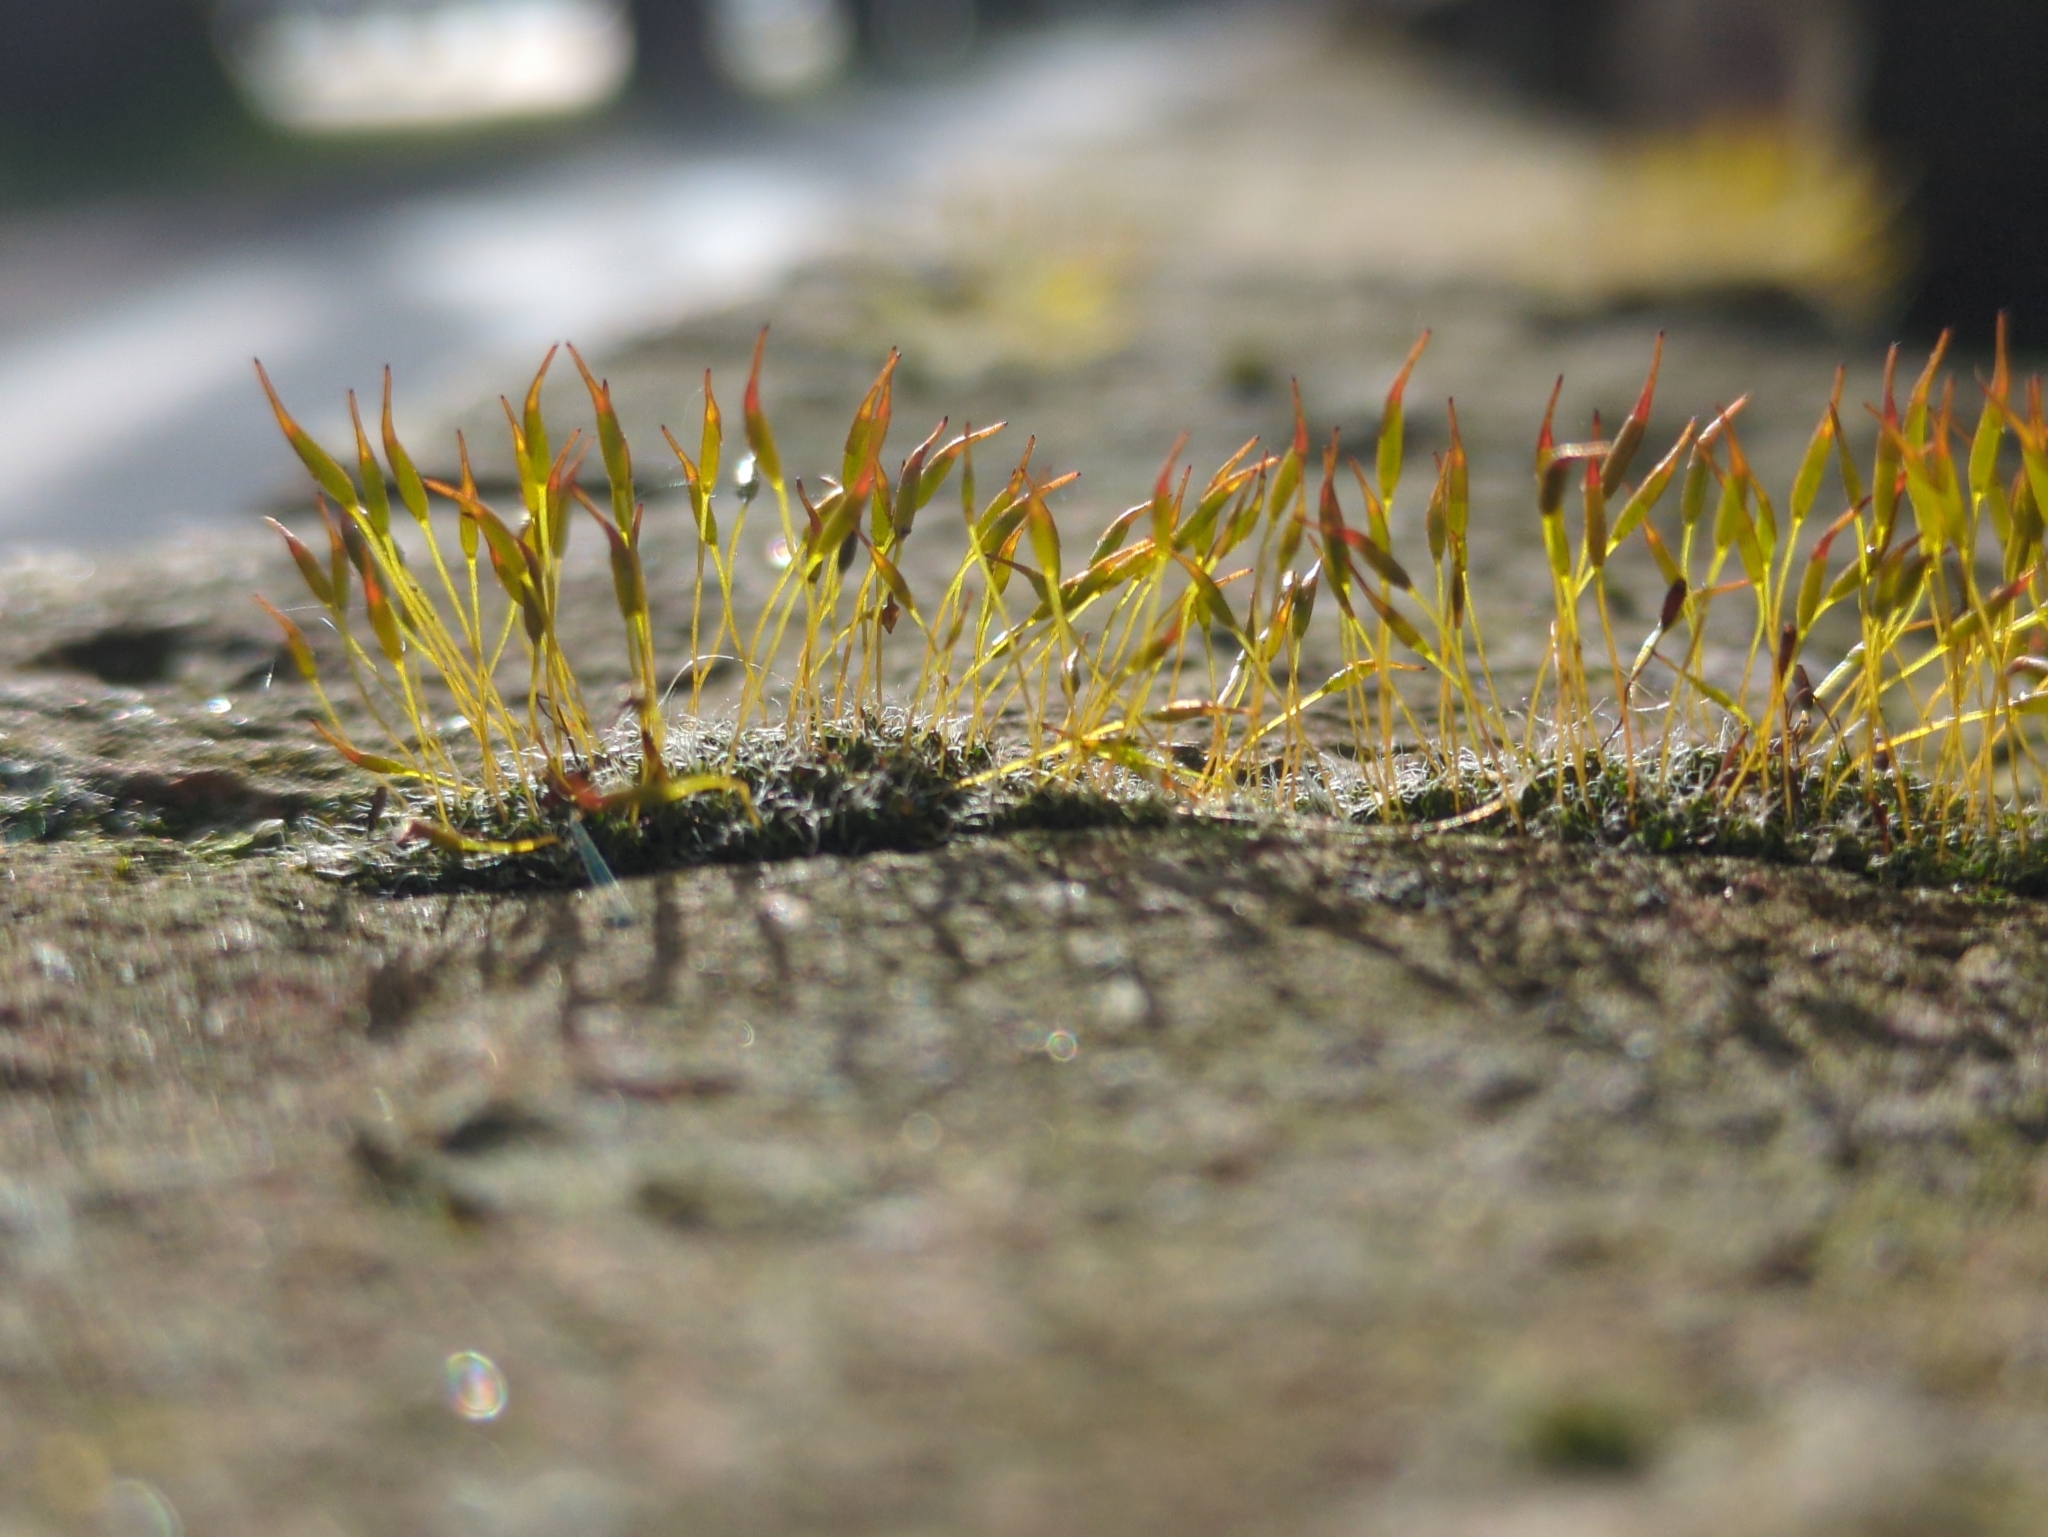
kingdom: Plantae
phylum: Bryophyta
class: Bryopsida
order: Pottiales
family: Pottiaceae
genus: Tortula
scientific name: Tortula muralis
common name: Wall screw-moss
